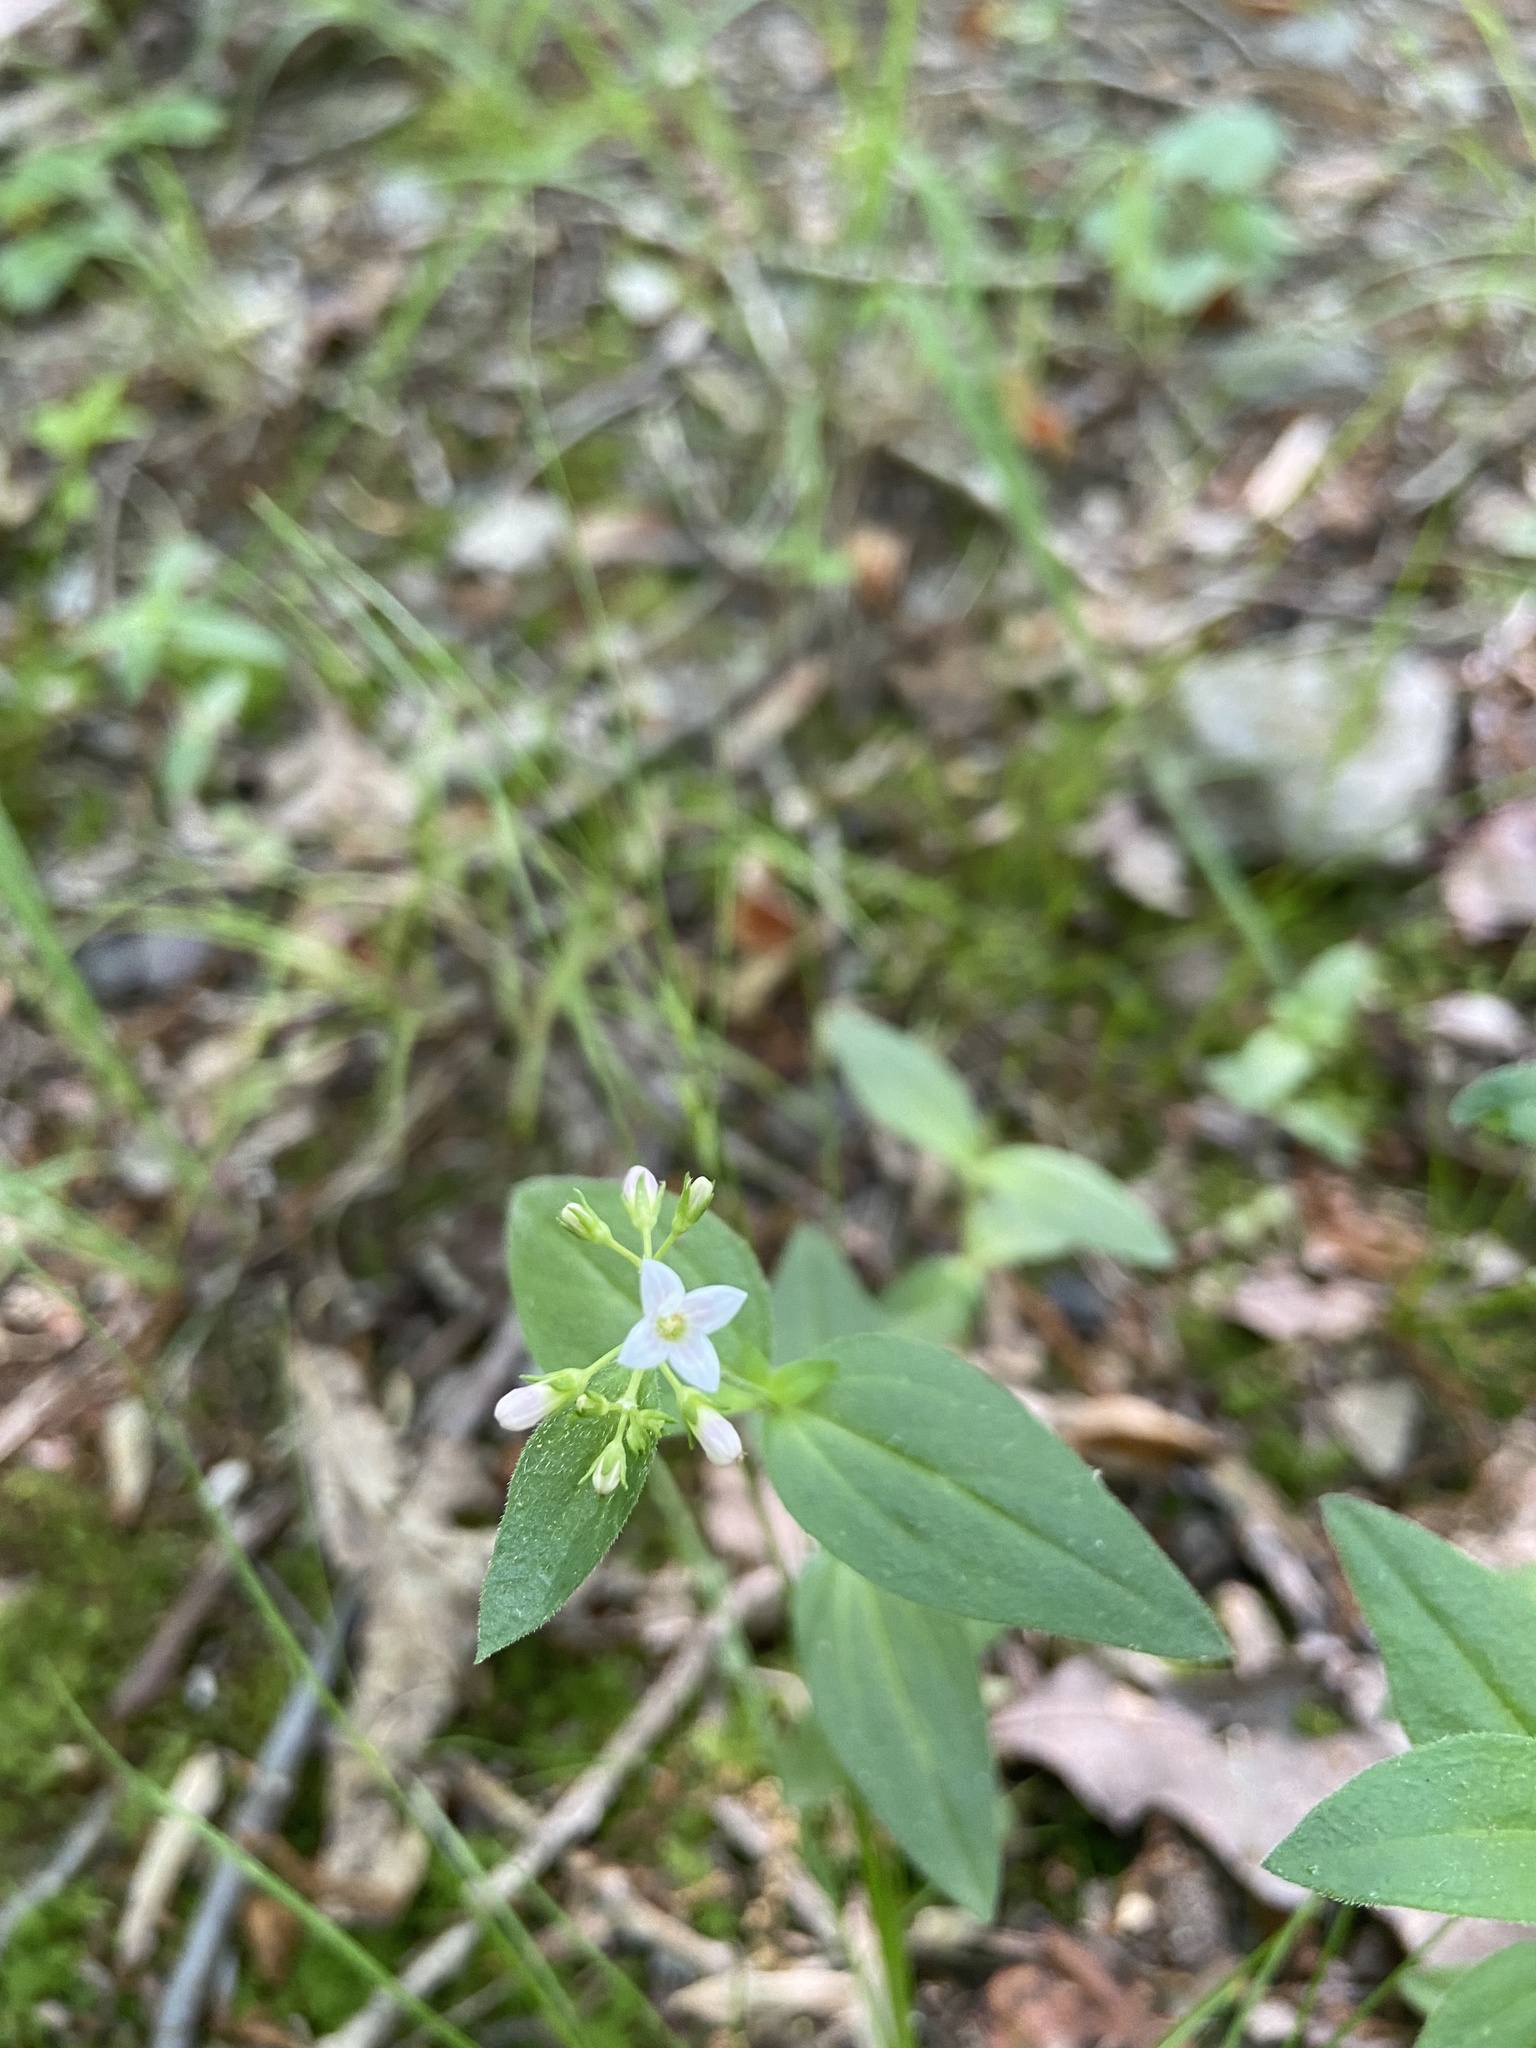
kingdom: Plantae
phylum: Tracheophyta
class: Magnoliopsida
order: Gentianales
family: Rubiaceae
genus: Houstonia
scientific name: Houstonia purpurea
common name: Summer bluet
